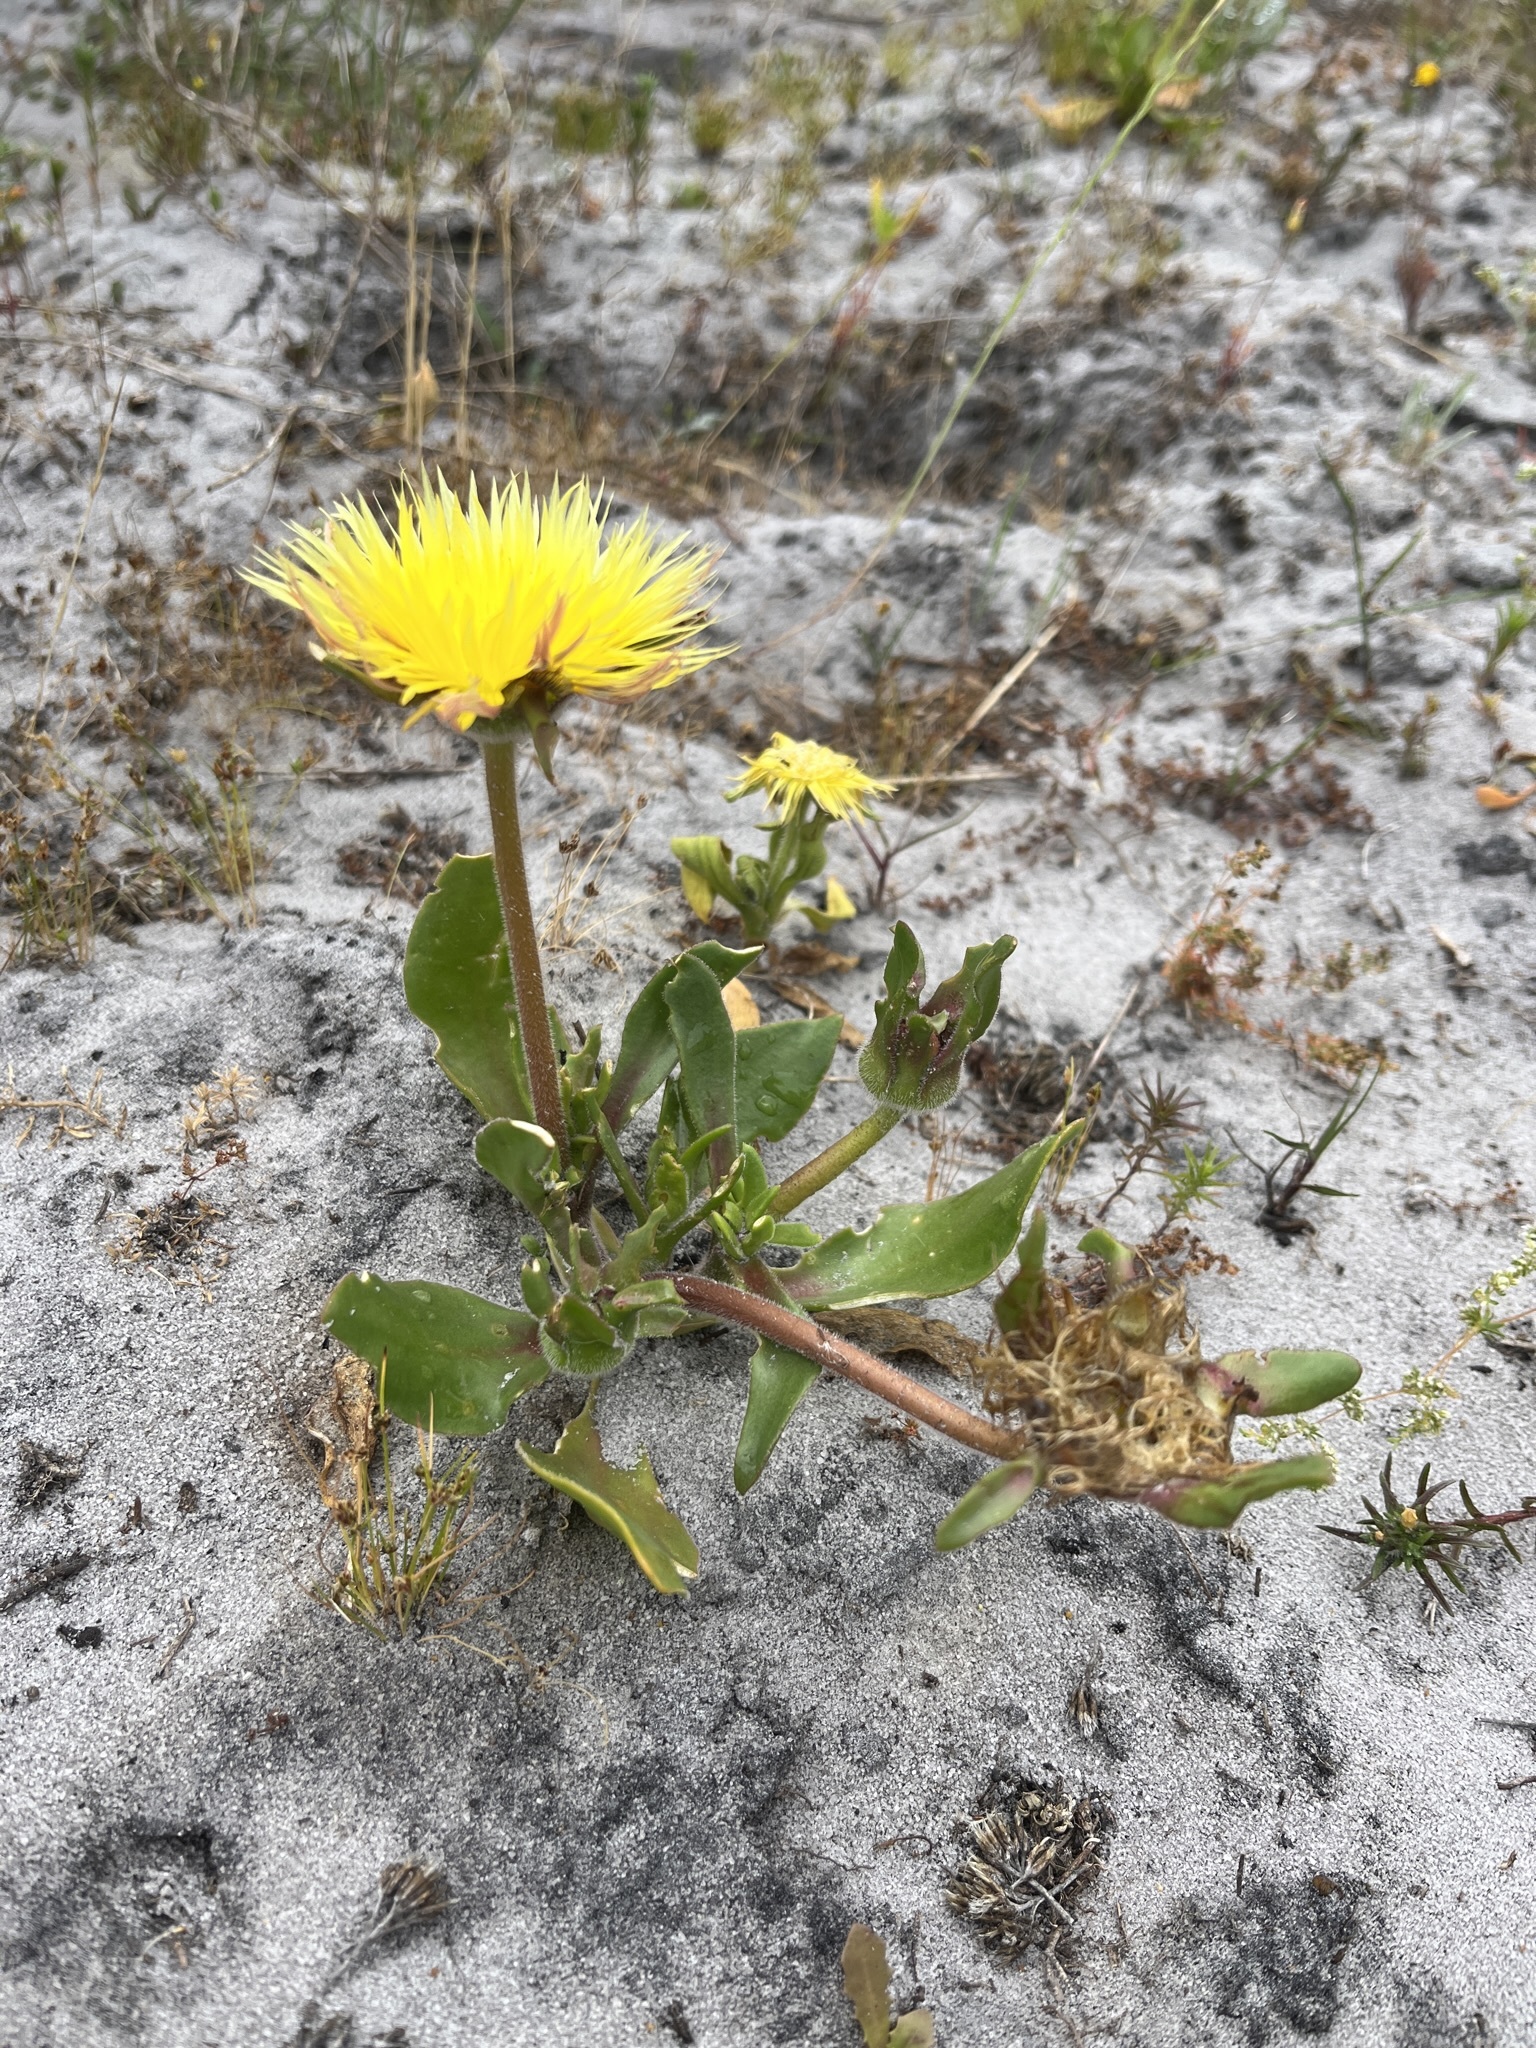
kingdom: Plantae
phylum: Tracheophyta
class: Magnoliopsida
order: Caryophyllales
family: Aizoaceae
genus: Carpanthea
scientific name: Carpanthea pomeridiana
